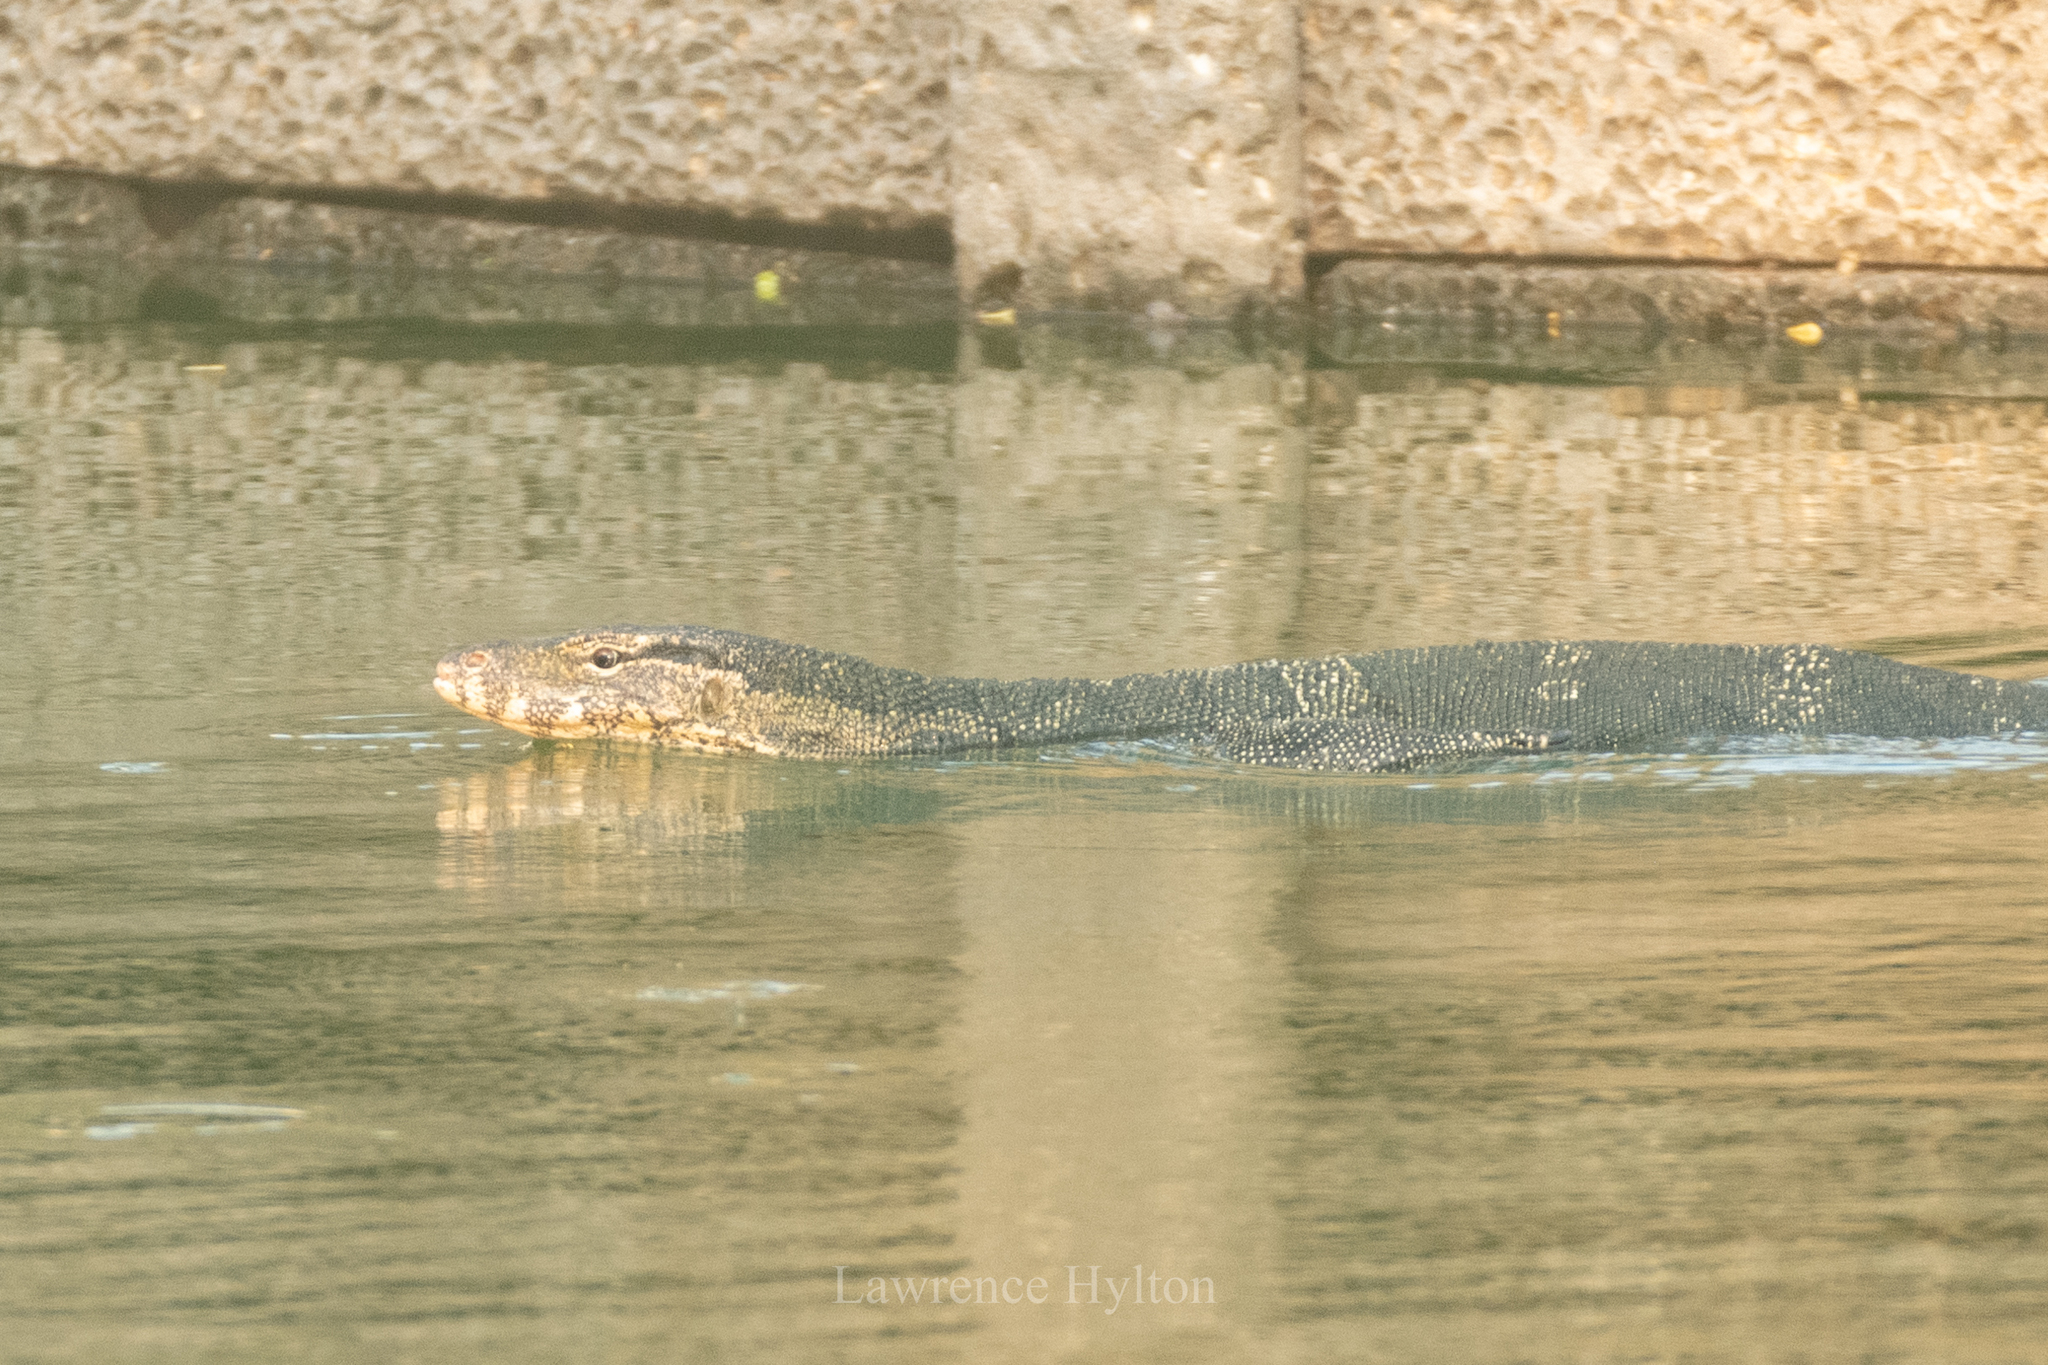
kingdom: Animalia
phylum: Chordata
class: Squamata
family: Varanidae
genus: Varanus
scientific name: Varanus salvator
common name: Common water monitor
